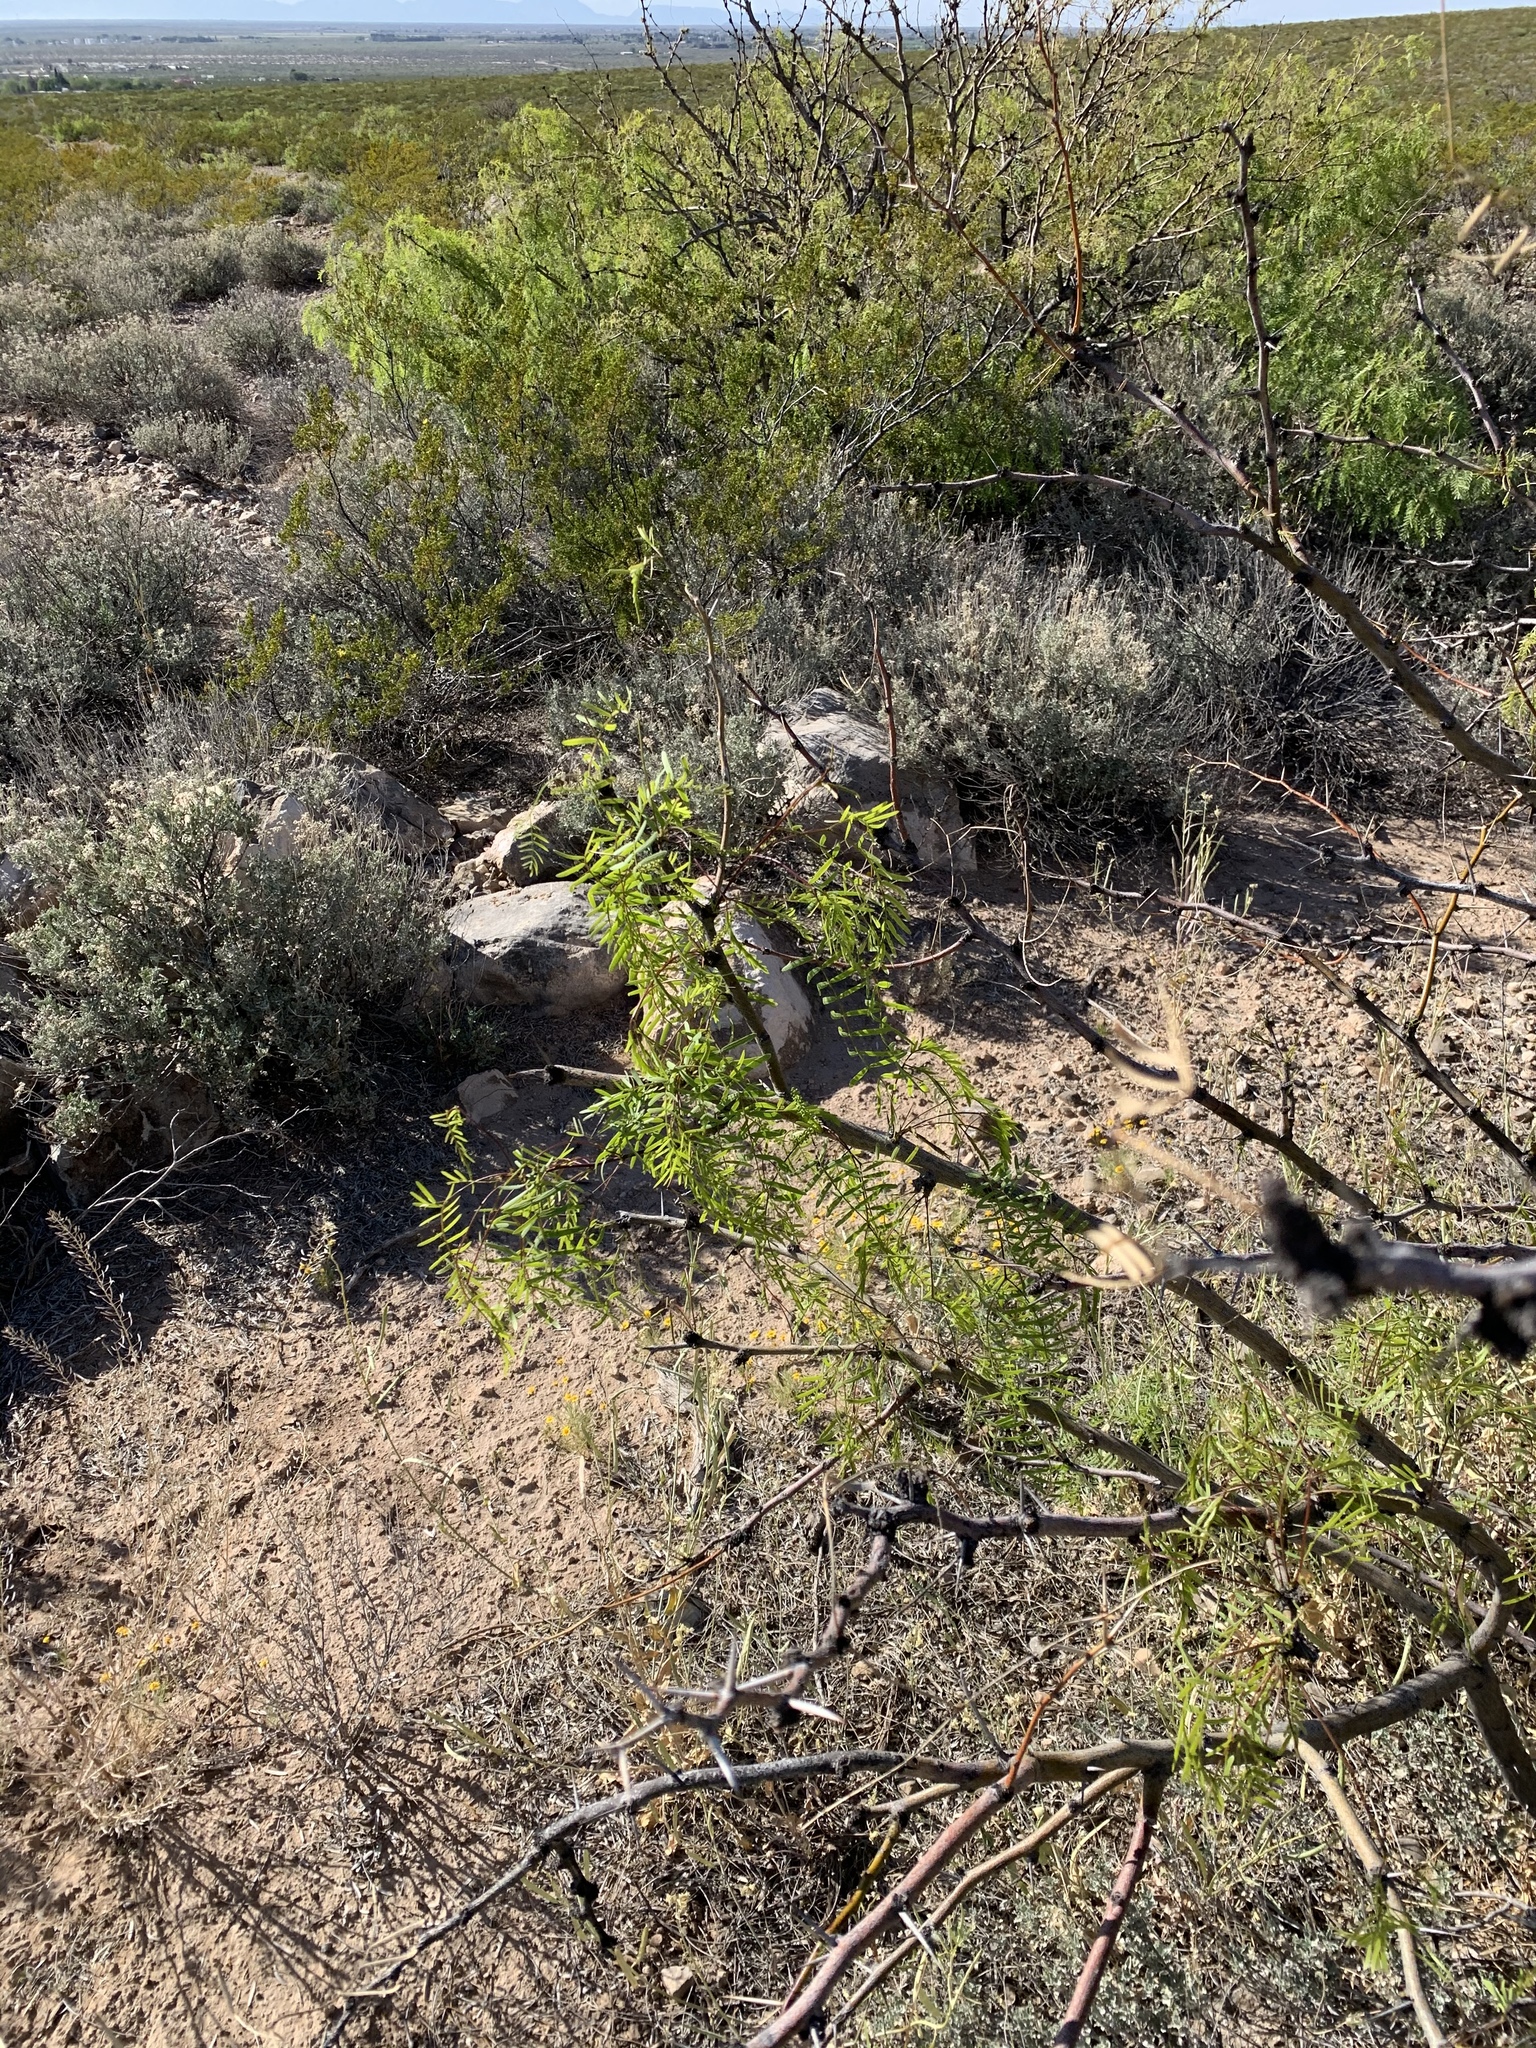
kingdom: Plantae
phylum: Tracheophyta
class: Magnoliopsida
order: Fabales
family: Fabaceae
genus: Prosopis
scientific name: Prosopis glandulosa
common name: Honey mesquite
